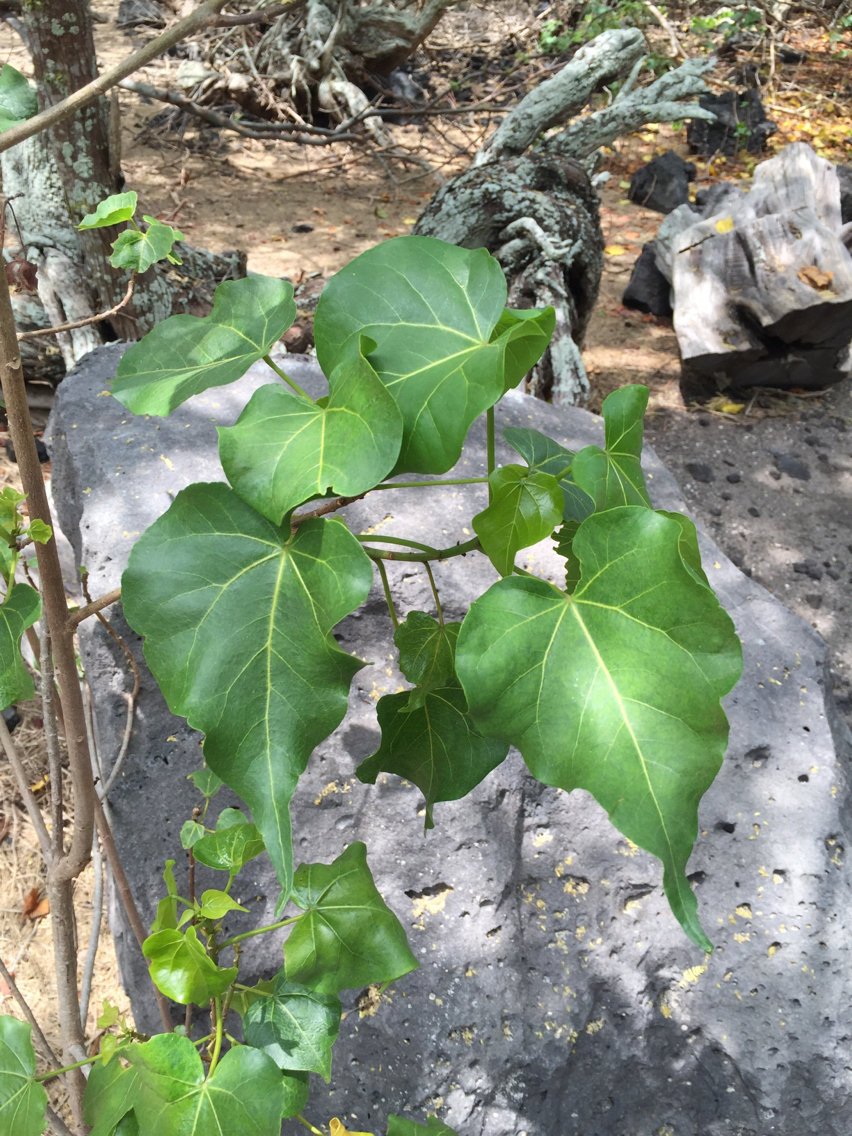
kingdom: Plantae
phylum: Tracheophyta
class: Magnoliopsida
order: Malvales
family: Malvaceae
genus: Thespesia
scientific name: Thespesia populnea
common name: Seaside mahoe
